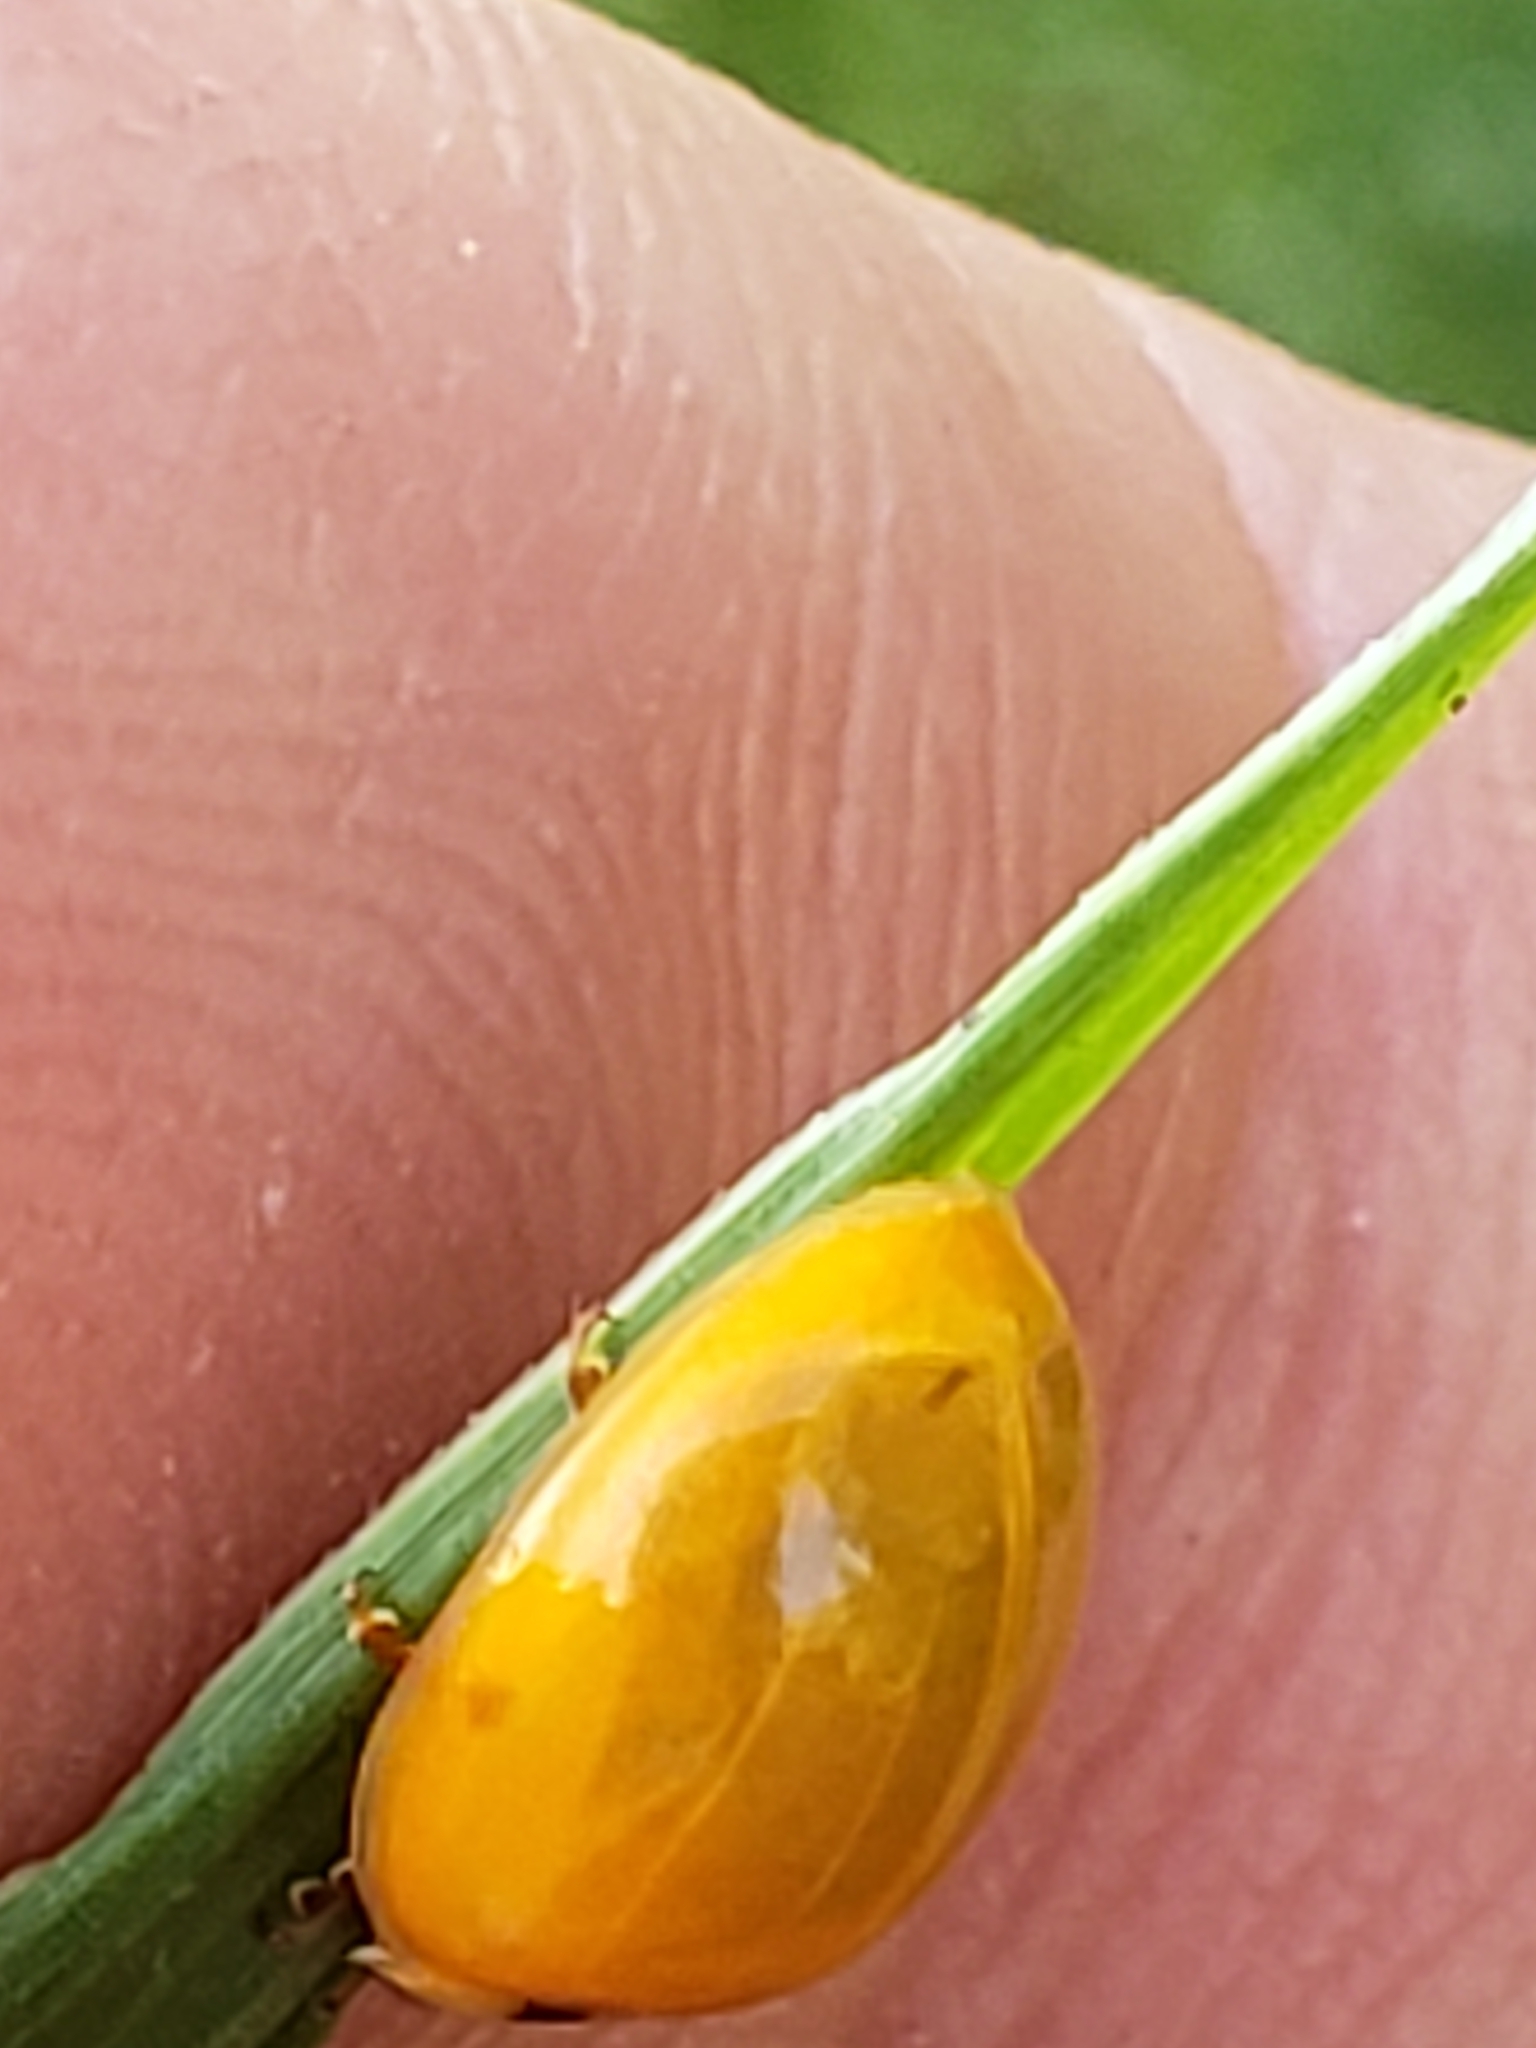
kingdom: Animalia
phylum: Arthropoda
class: Insecta
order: Coleoptera
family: Coccinellidae
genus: Harmonia
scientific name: Harmonia axyridis
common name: Harlequin ladybird
